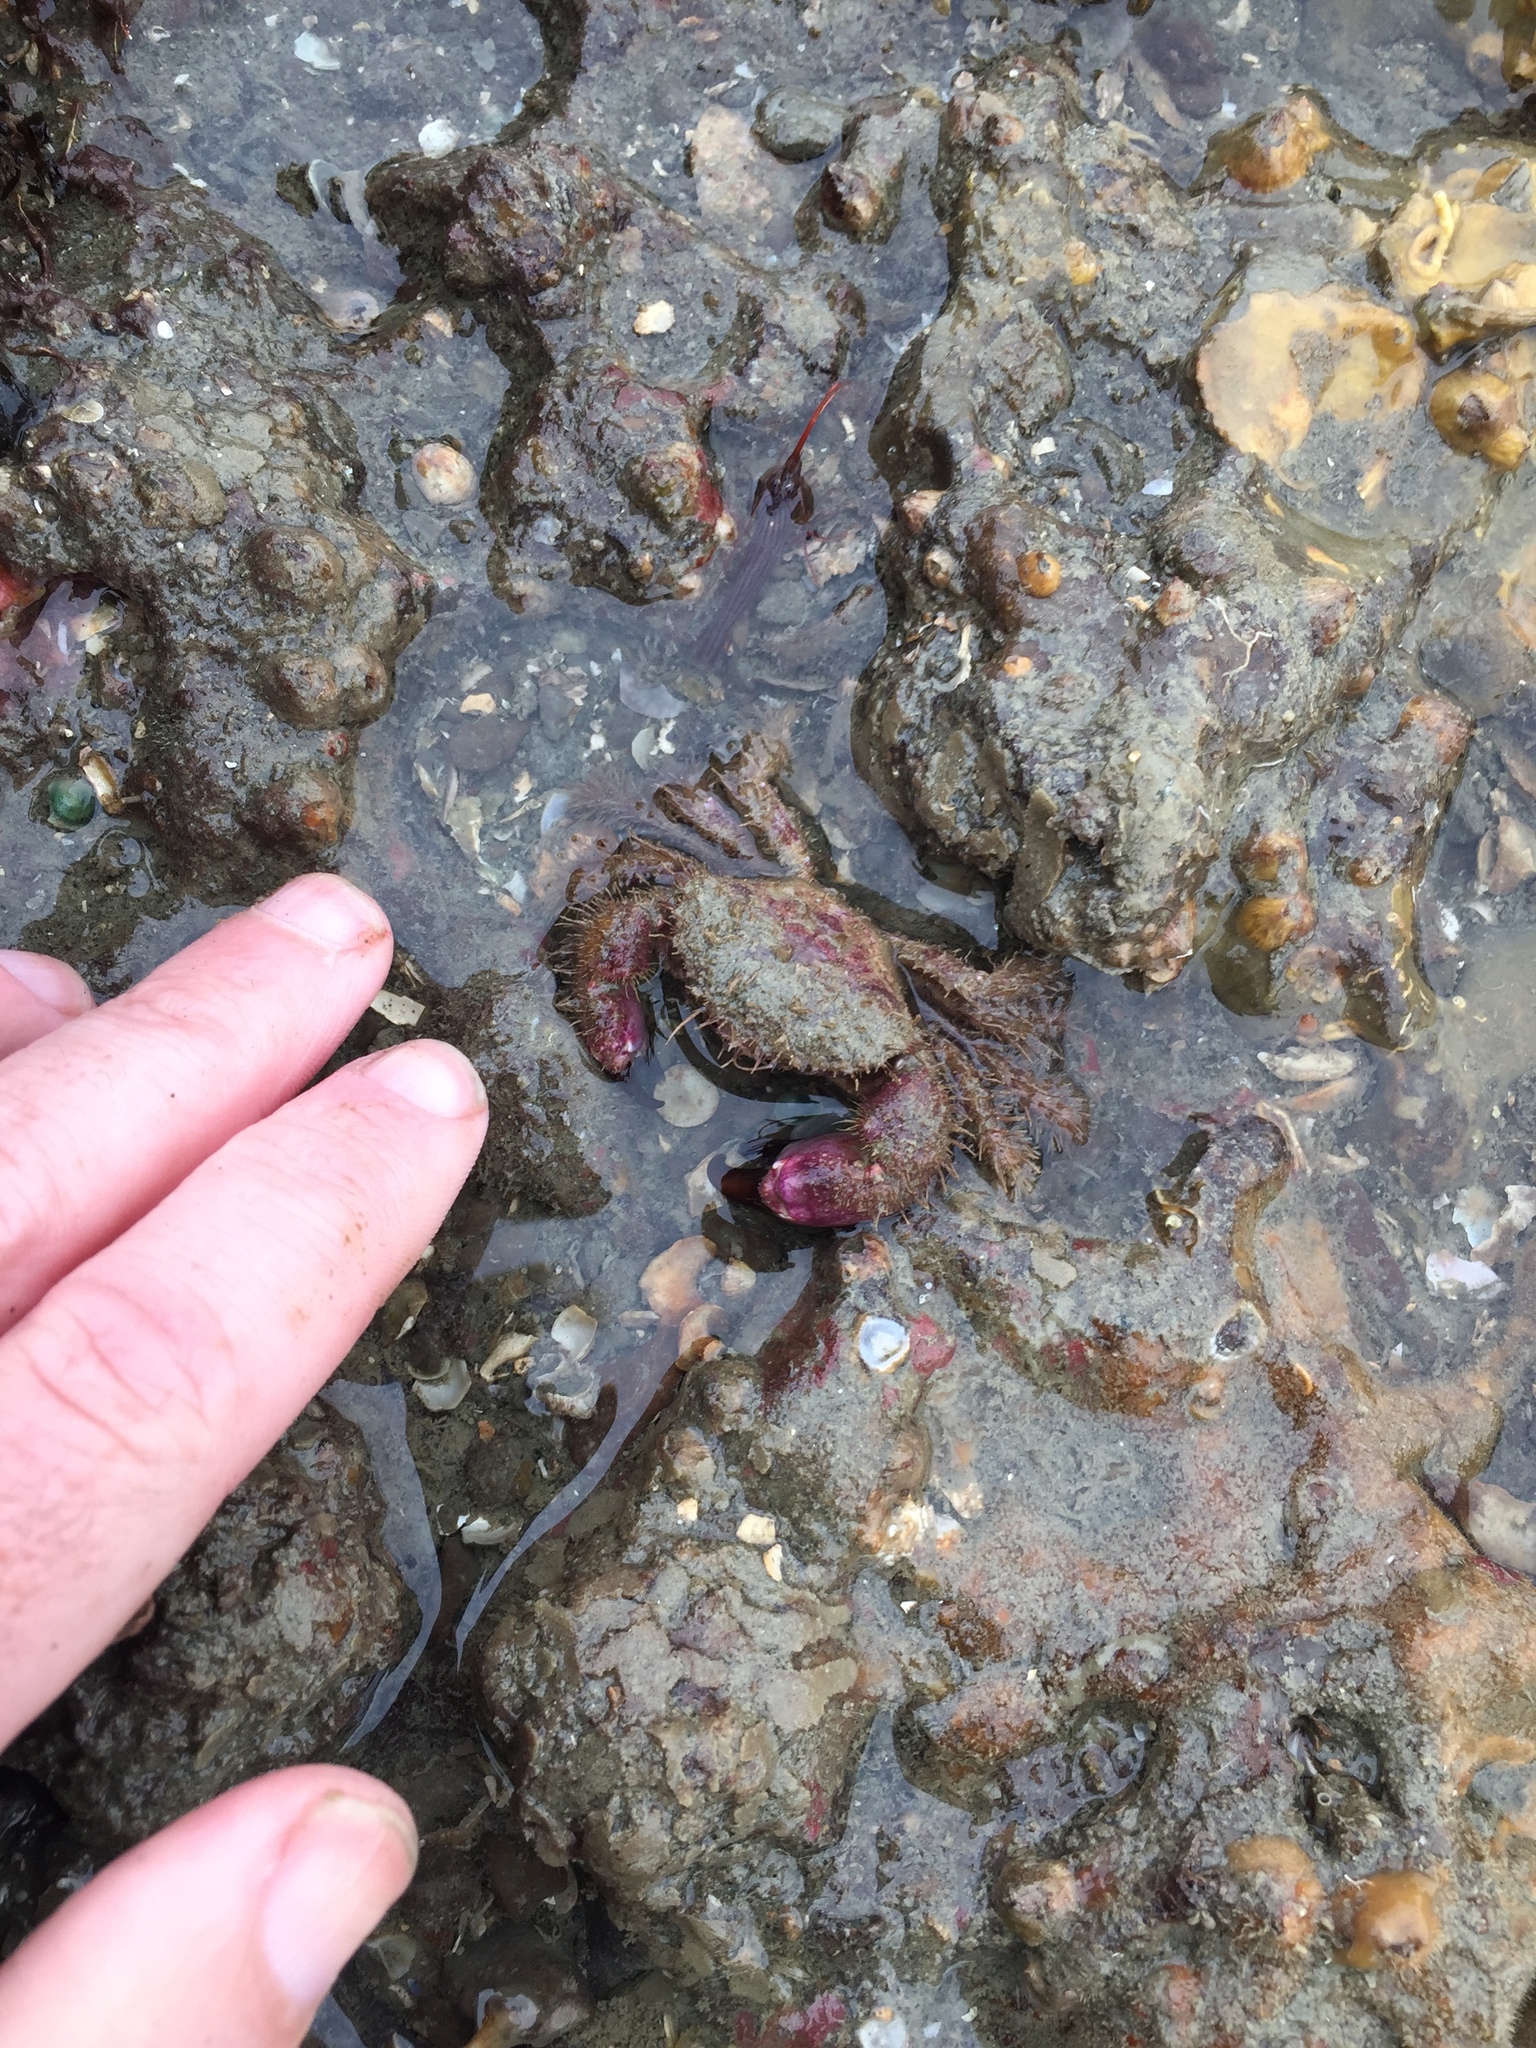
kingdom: Animalia
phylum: Arthropoda
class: Malacostraca
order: Decapoda
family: Pilumnidae
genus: Pilumnus
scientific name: Pilumnus novaezealandiae
